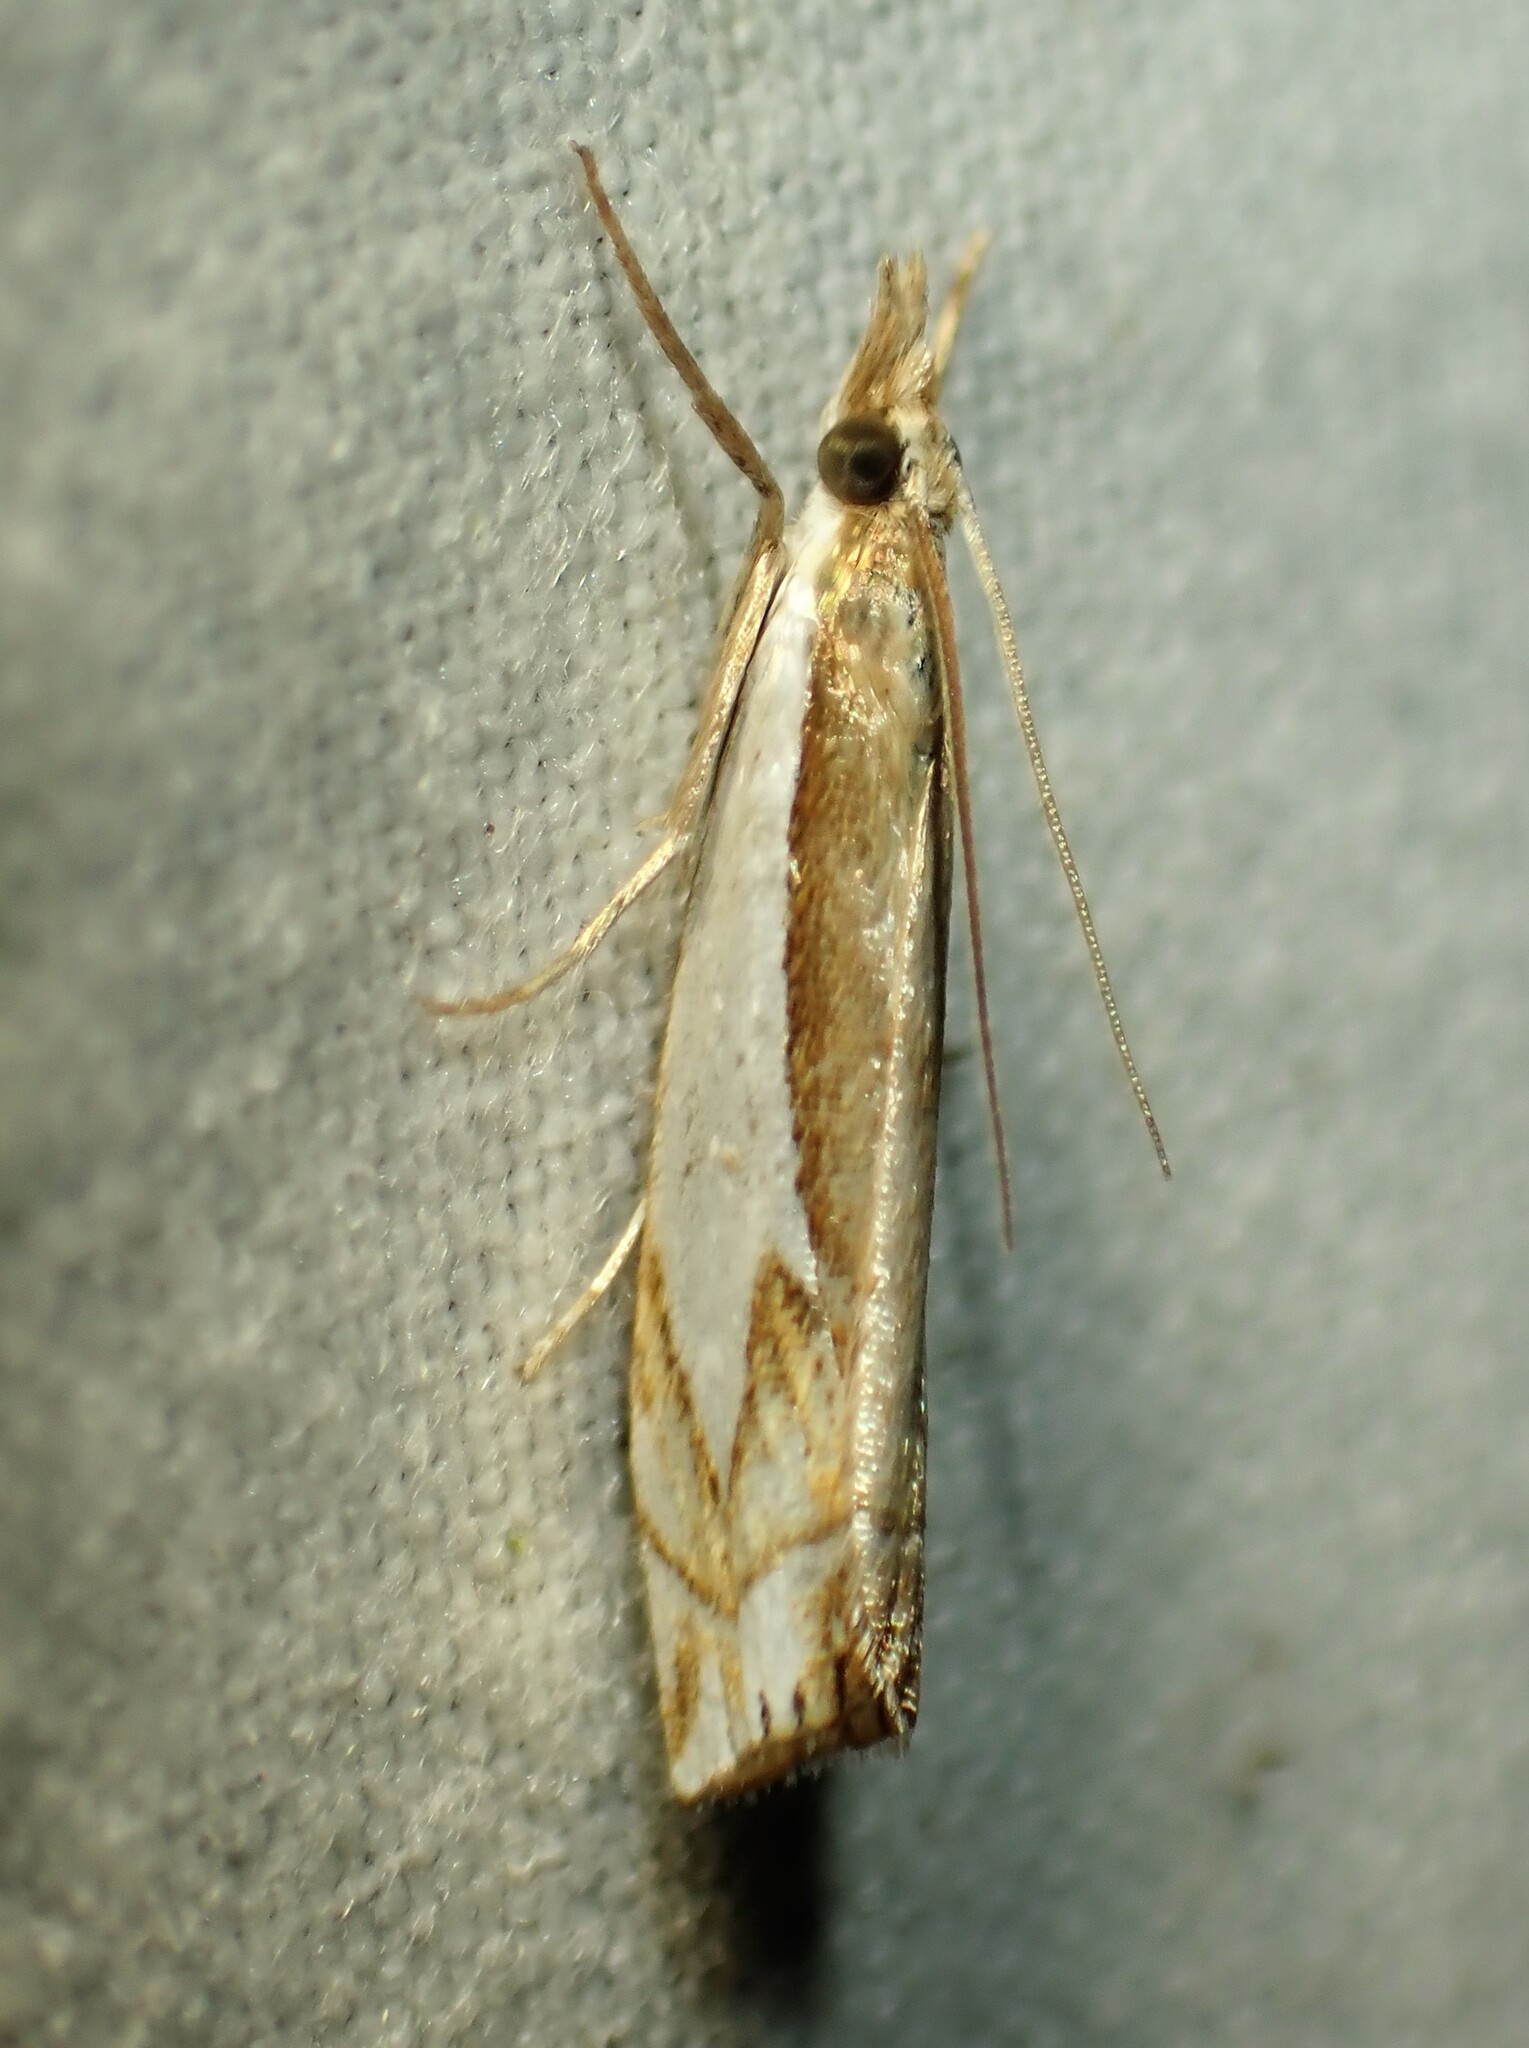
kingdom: Animalia
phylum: Arthropoda
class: Insecta
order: Lepidoptera
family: Crambidae
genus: Crambus
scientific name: Crambus bidens
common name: Forked grass-veneer
